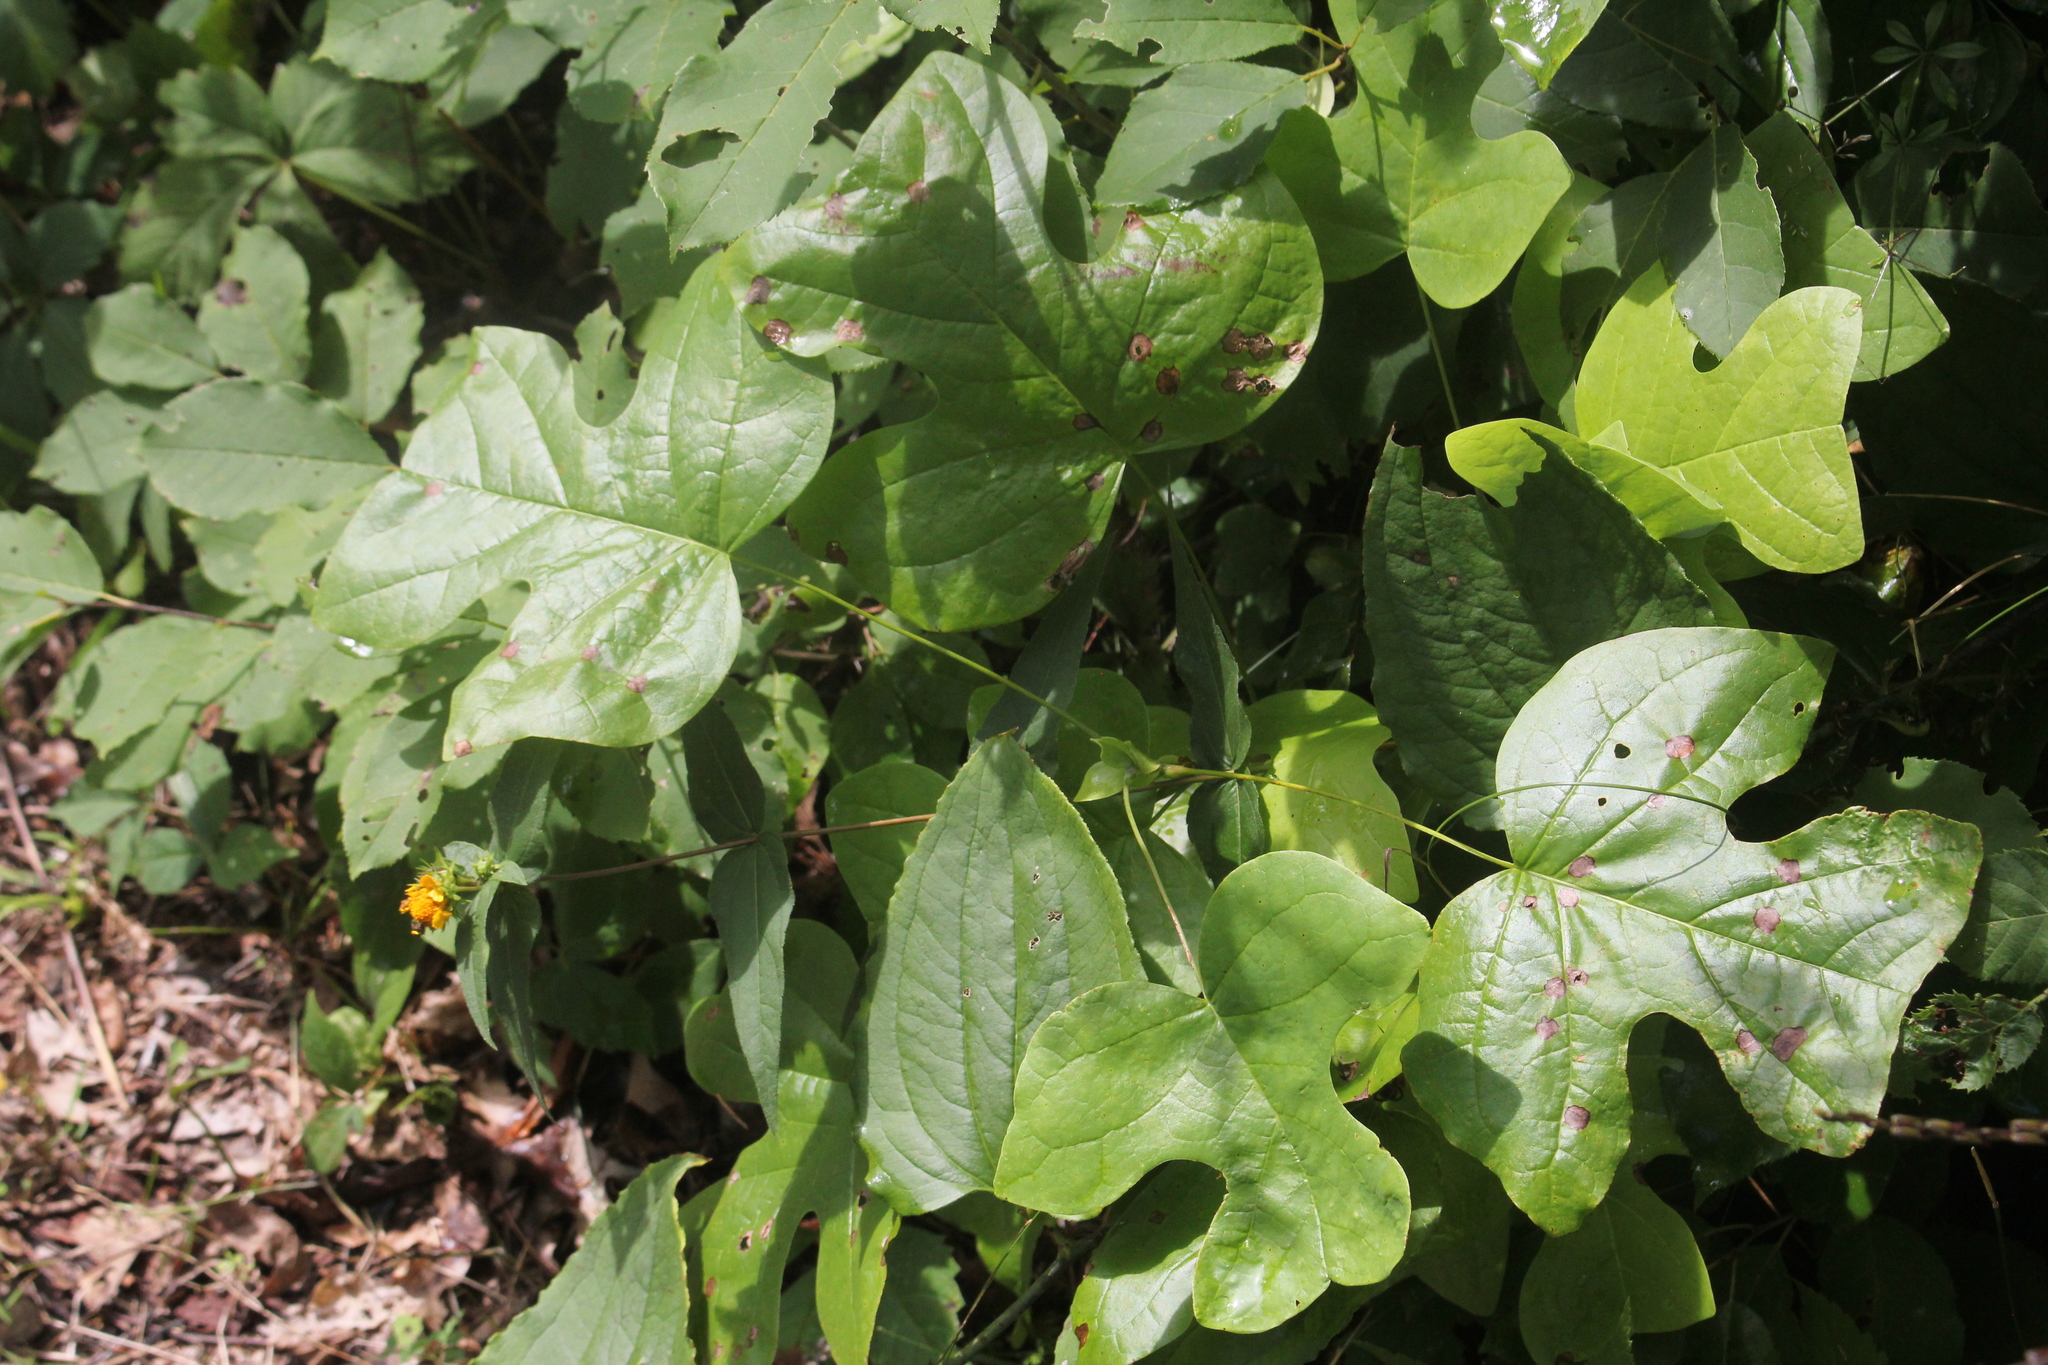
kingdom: Plantae
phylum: Tracheophyta
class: Magnoliopsida
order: Magnoliales
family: Magnoliaceae
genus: Liriodendron
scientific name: Liriodendron tulipifera
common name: Tulip tree
